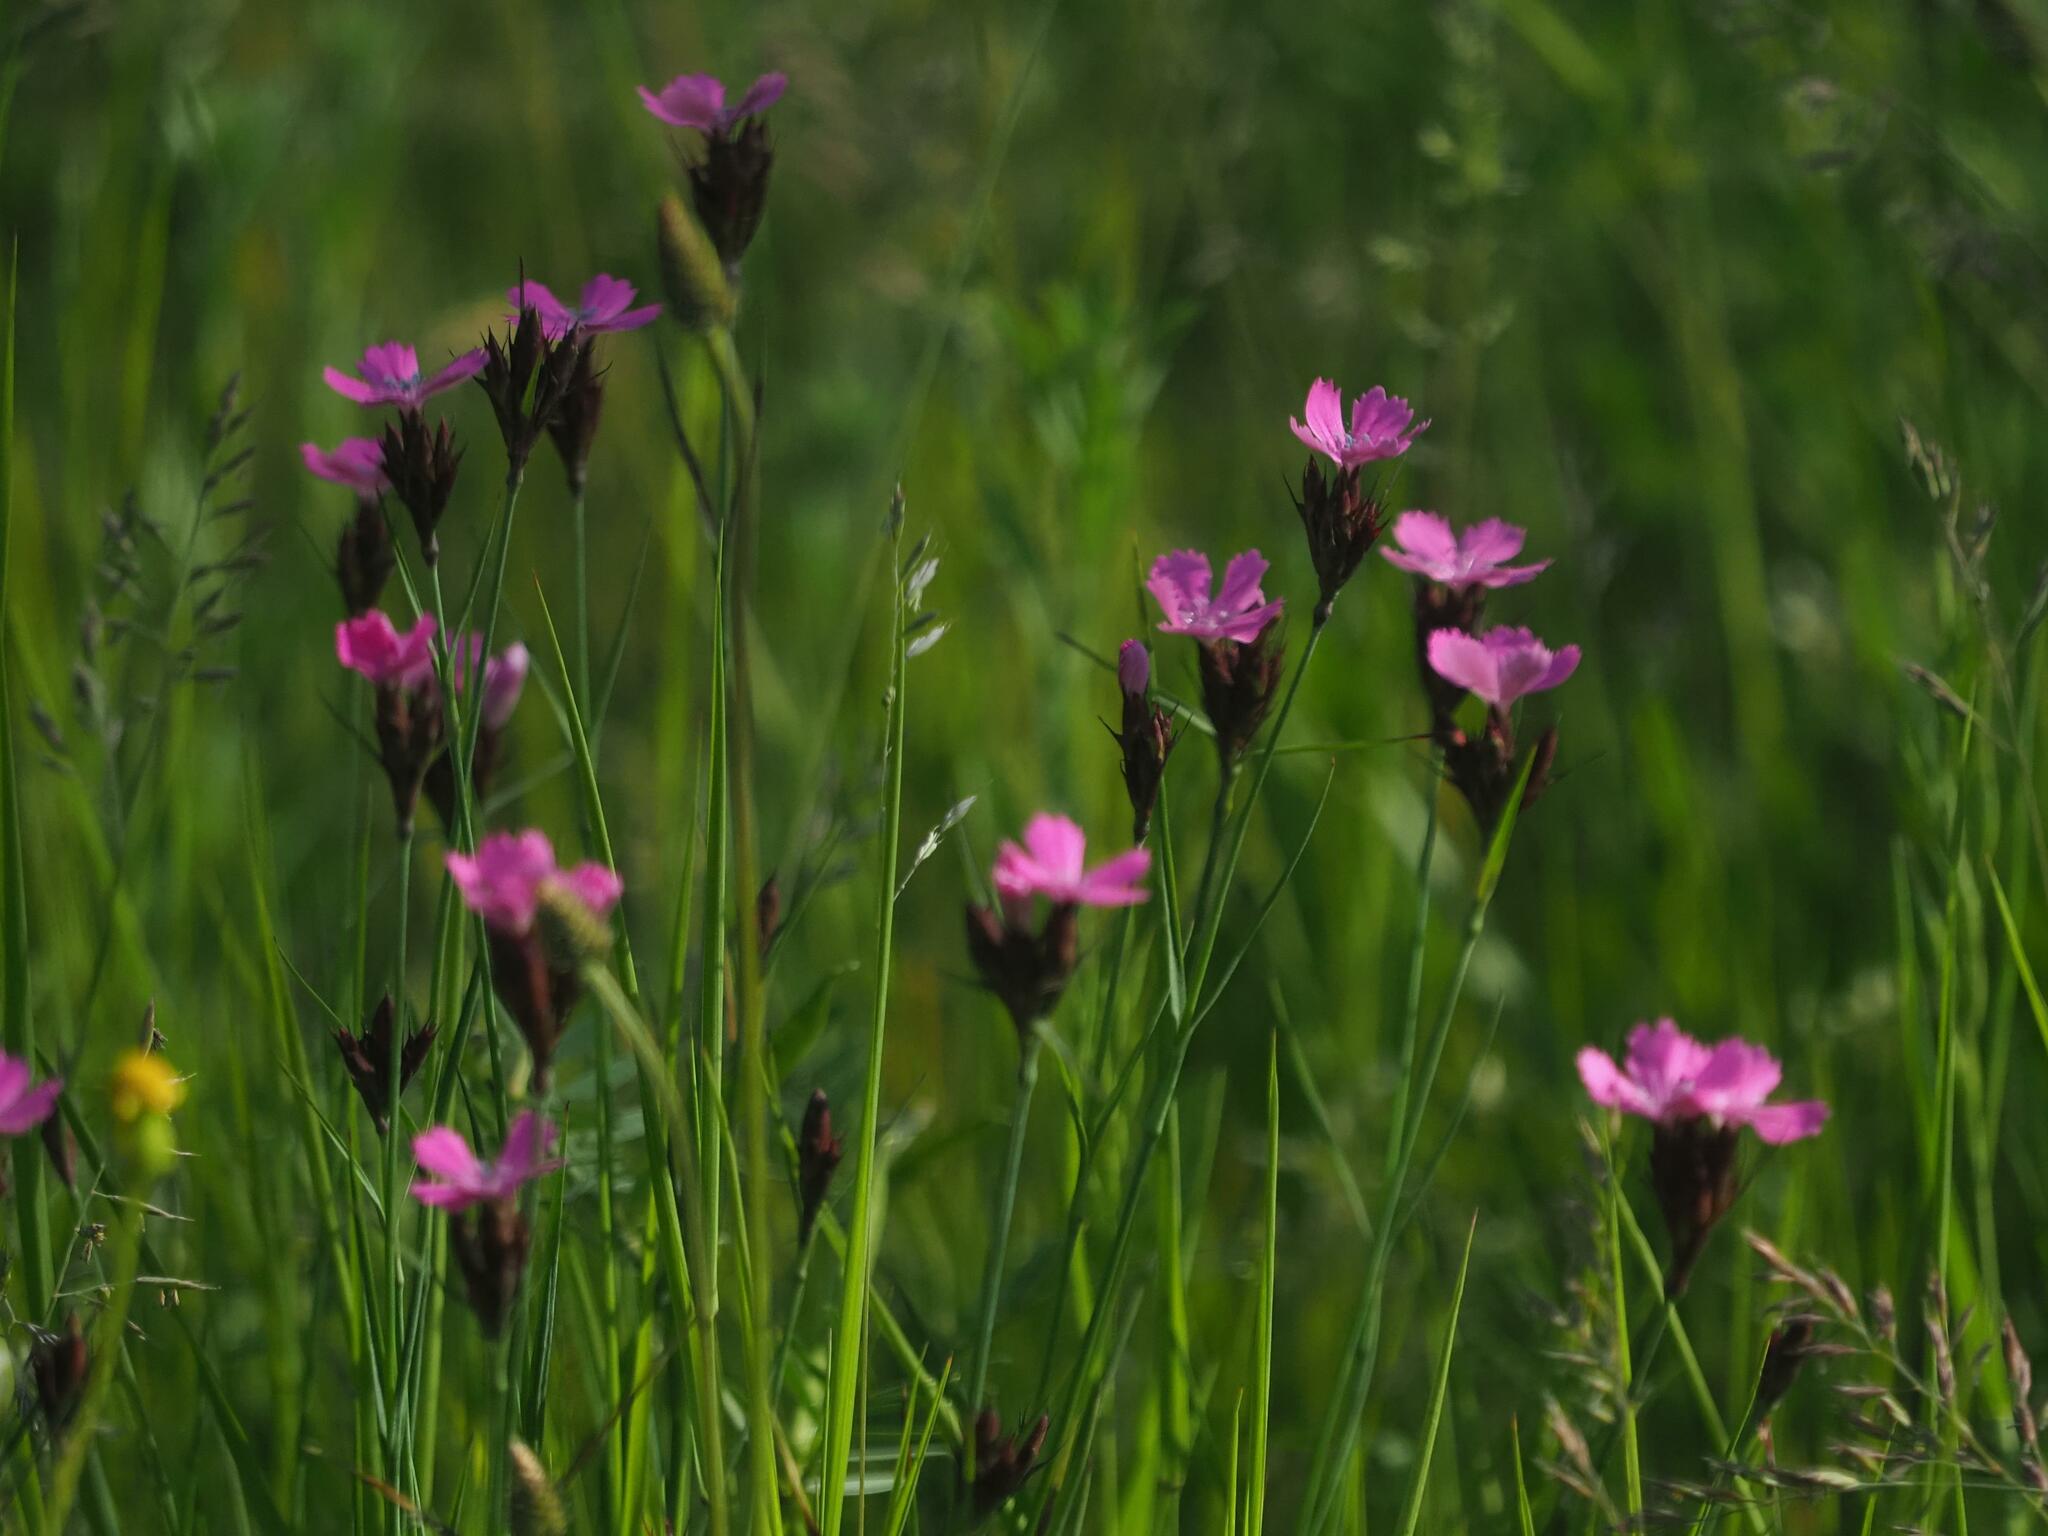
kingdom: Plantae
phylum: Tracheophyta
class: Magnoliopsida
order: Caryophyllales
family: Caryophyllaceae
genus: Dianthus
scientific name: Dianthus carthusianorum
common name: Carthusian pink
